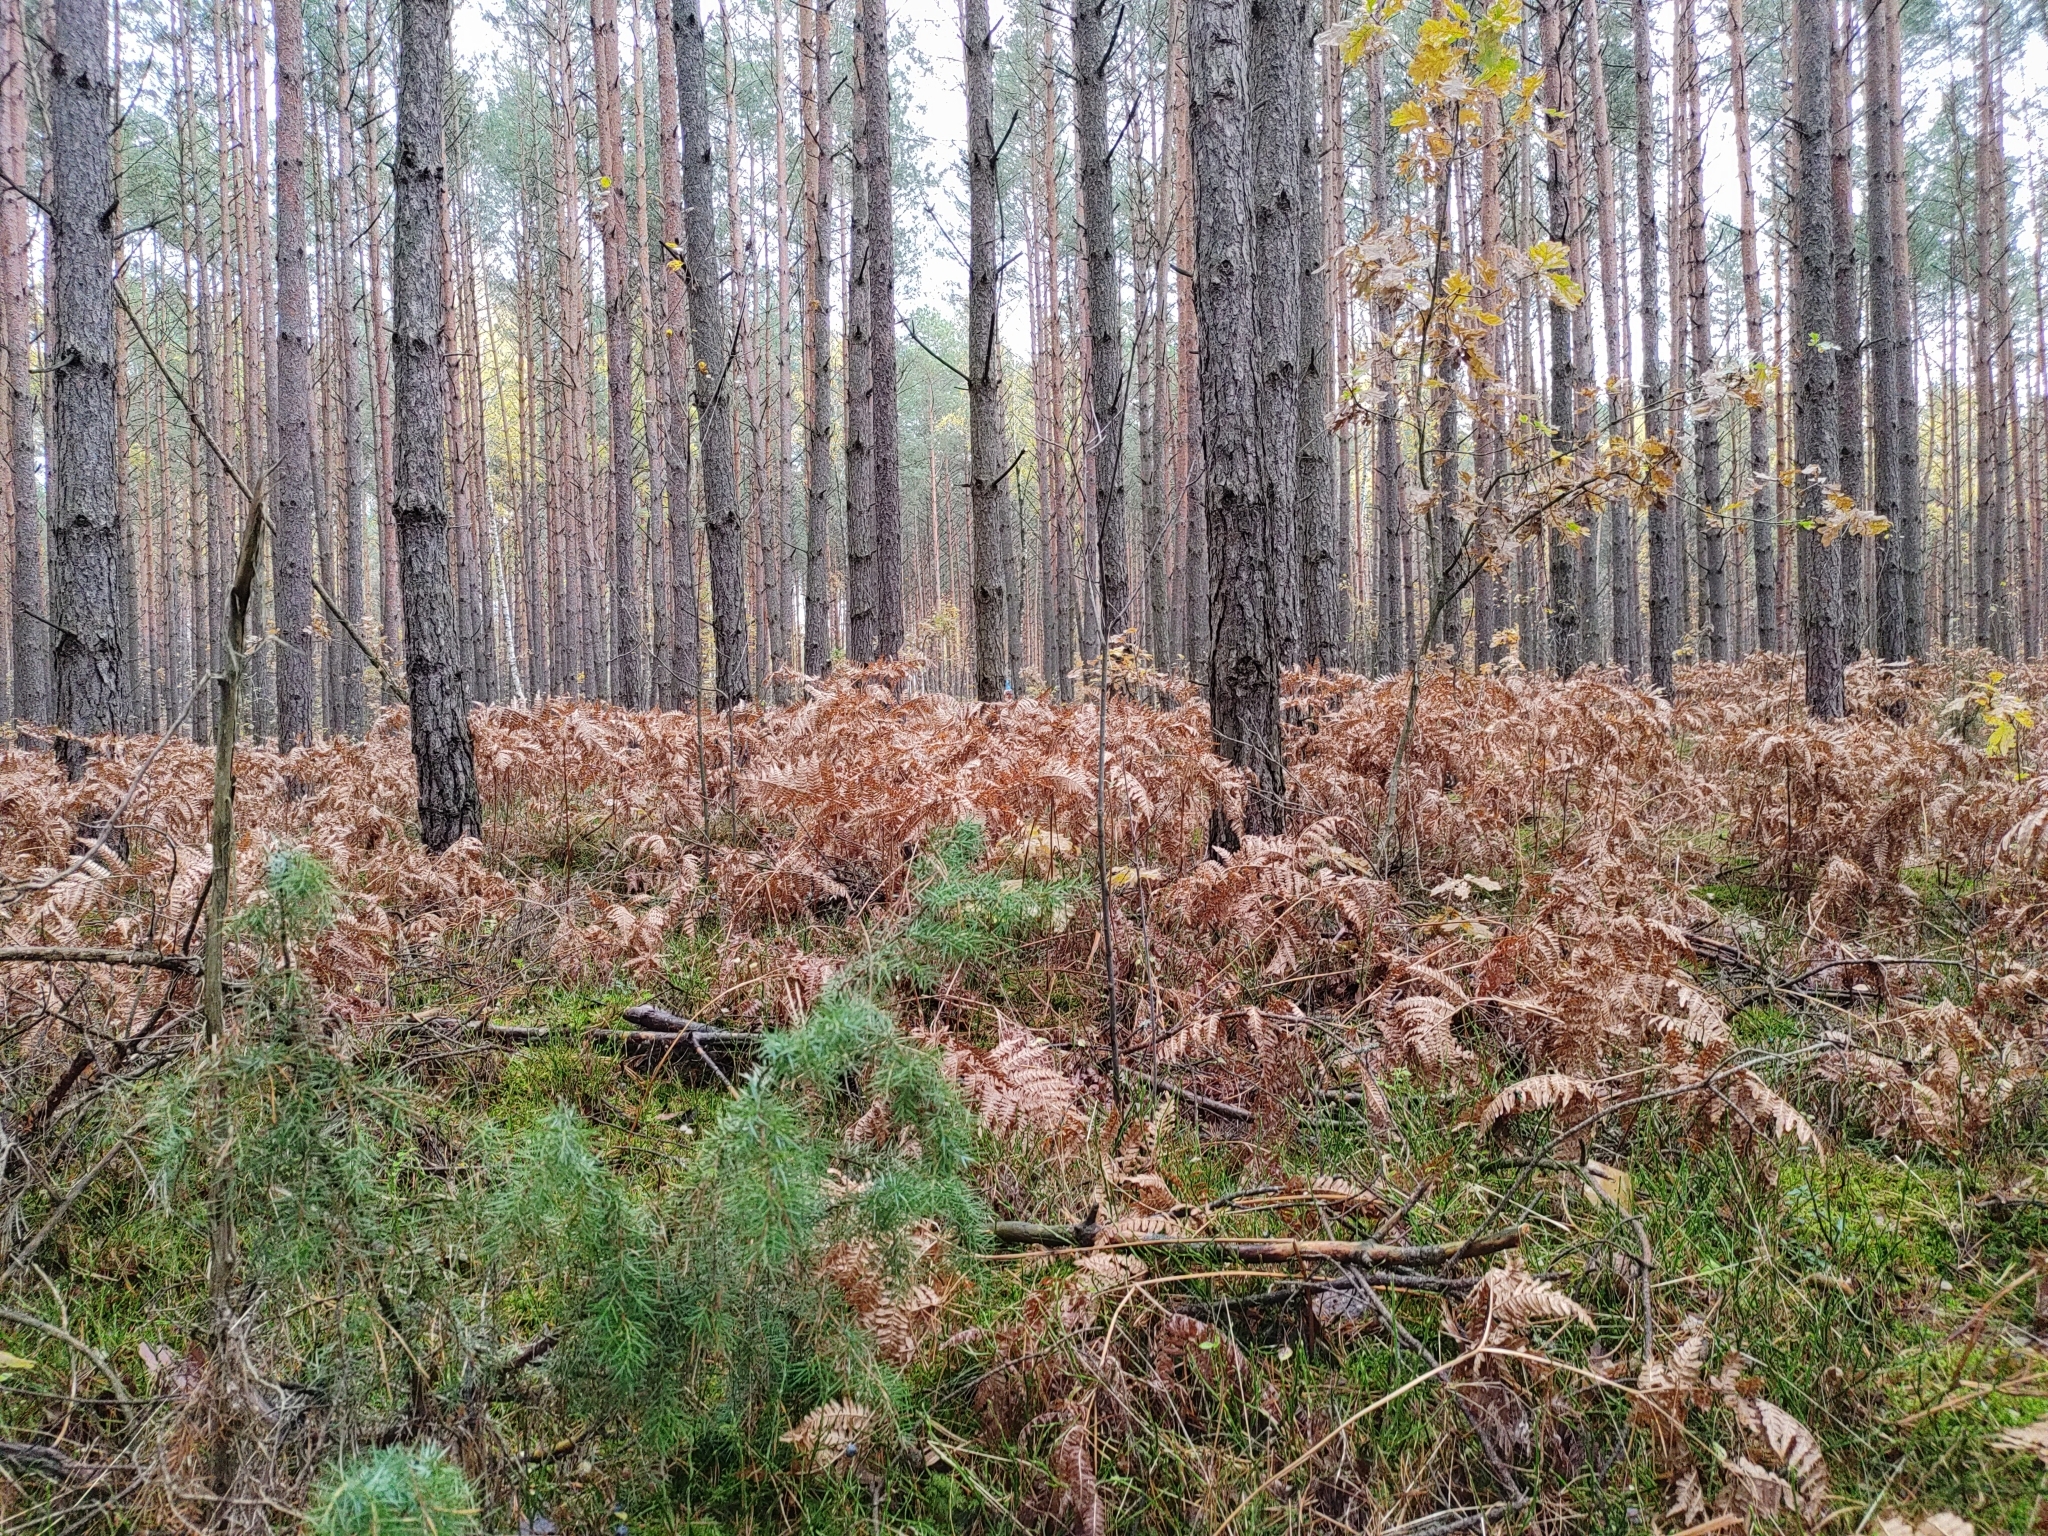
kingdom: Plantae
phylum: Bryophyta
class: Bryopsida
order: Hypnales
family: Hylocomiaceae
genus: Hylocomium
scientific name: Hylocomium splendens
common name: Stairstep moss
